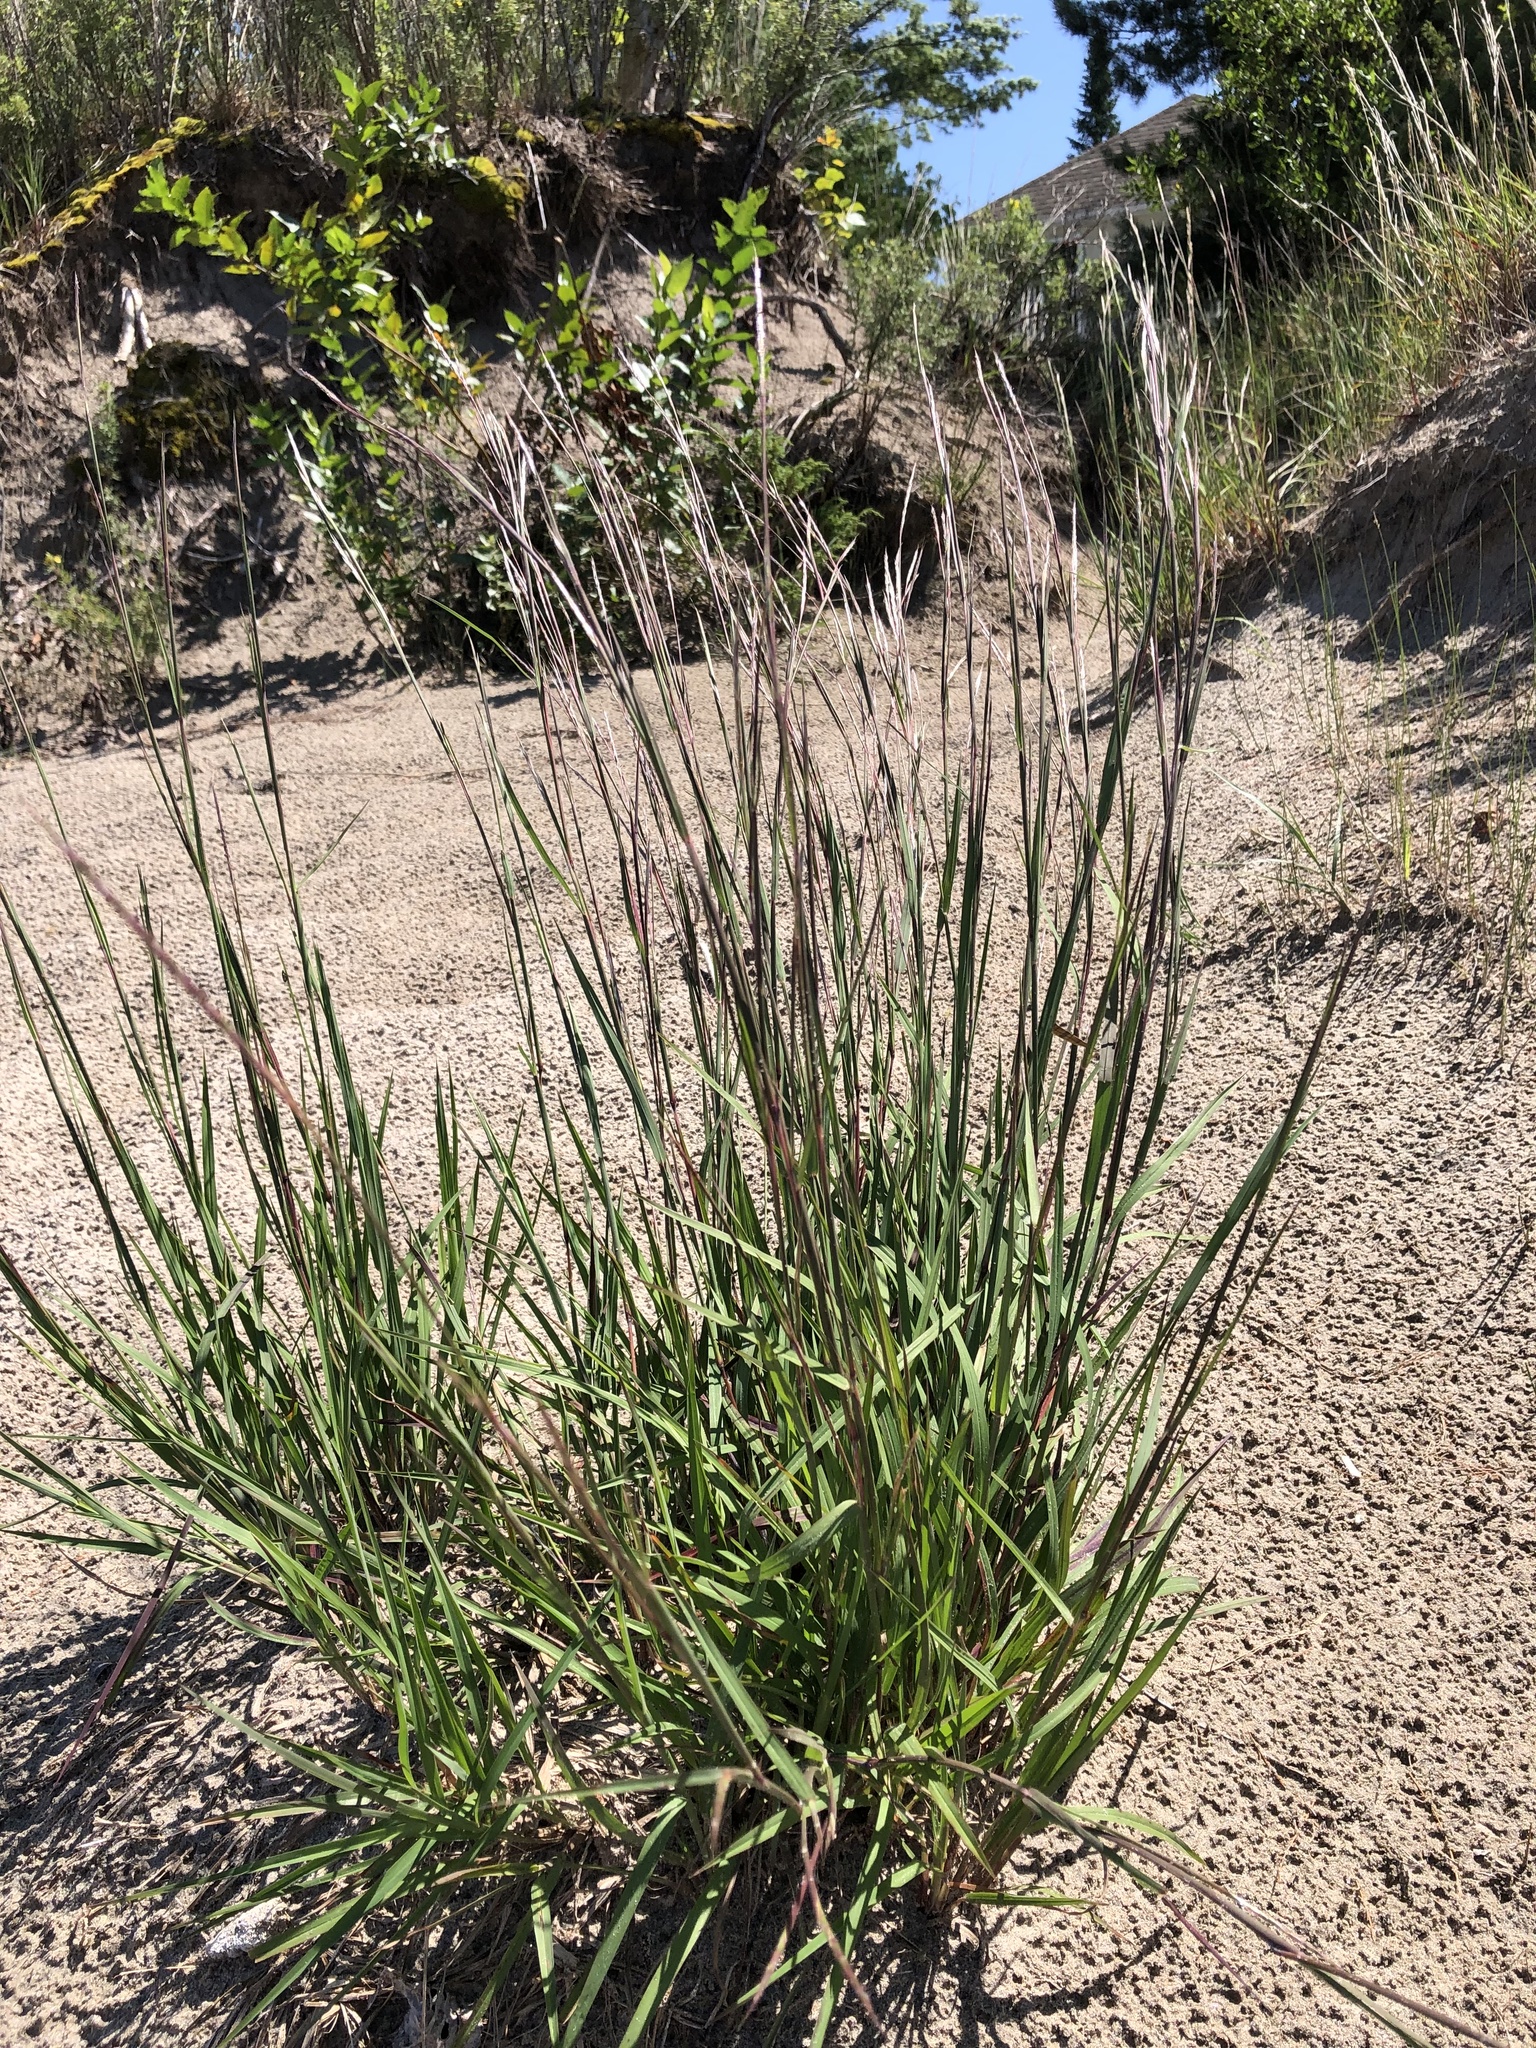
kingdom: Plantae
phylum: Tracheophyta
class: Liliopsida
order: Poales
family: Poaceae
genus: Schizachyrium
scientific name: Schizachyrium scoparium
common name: Little bluestem
